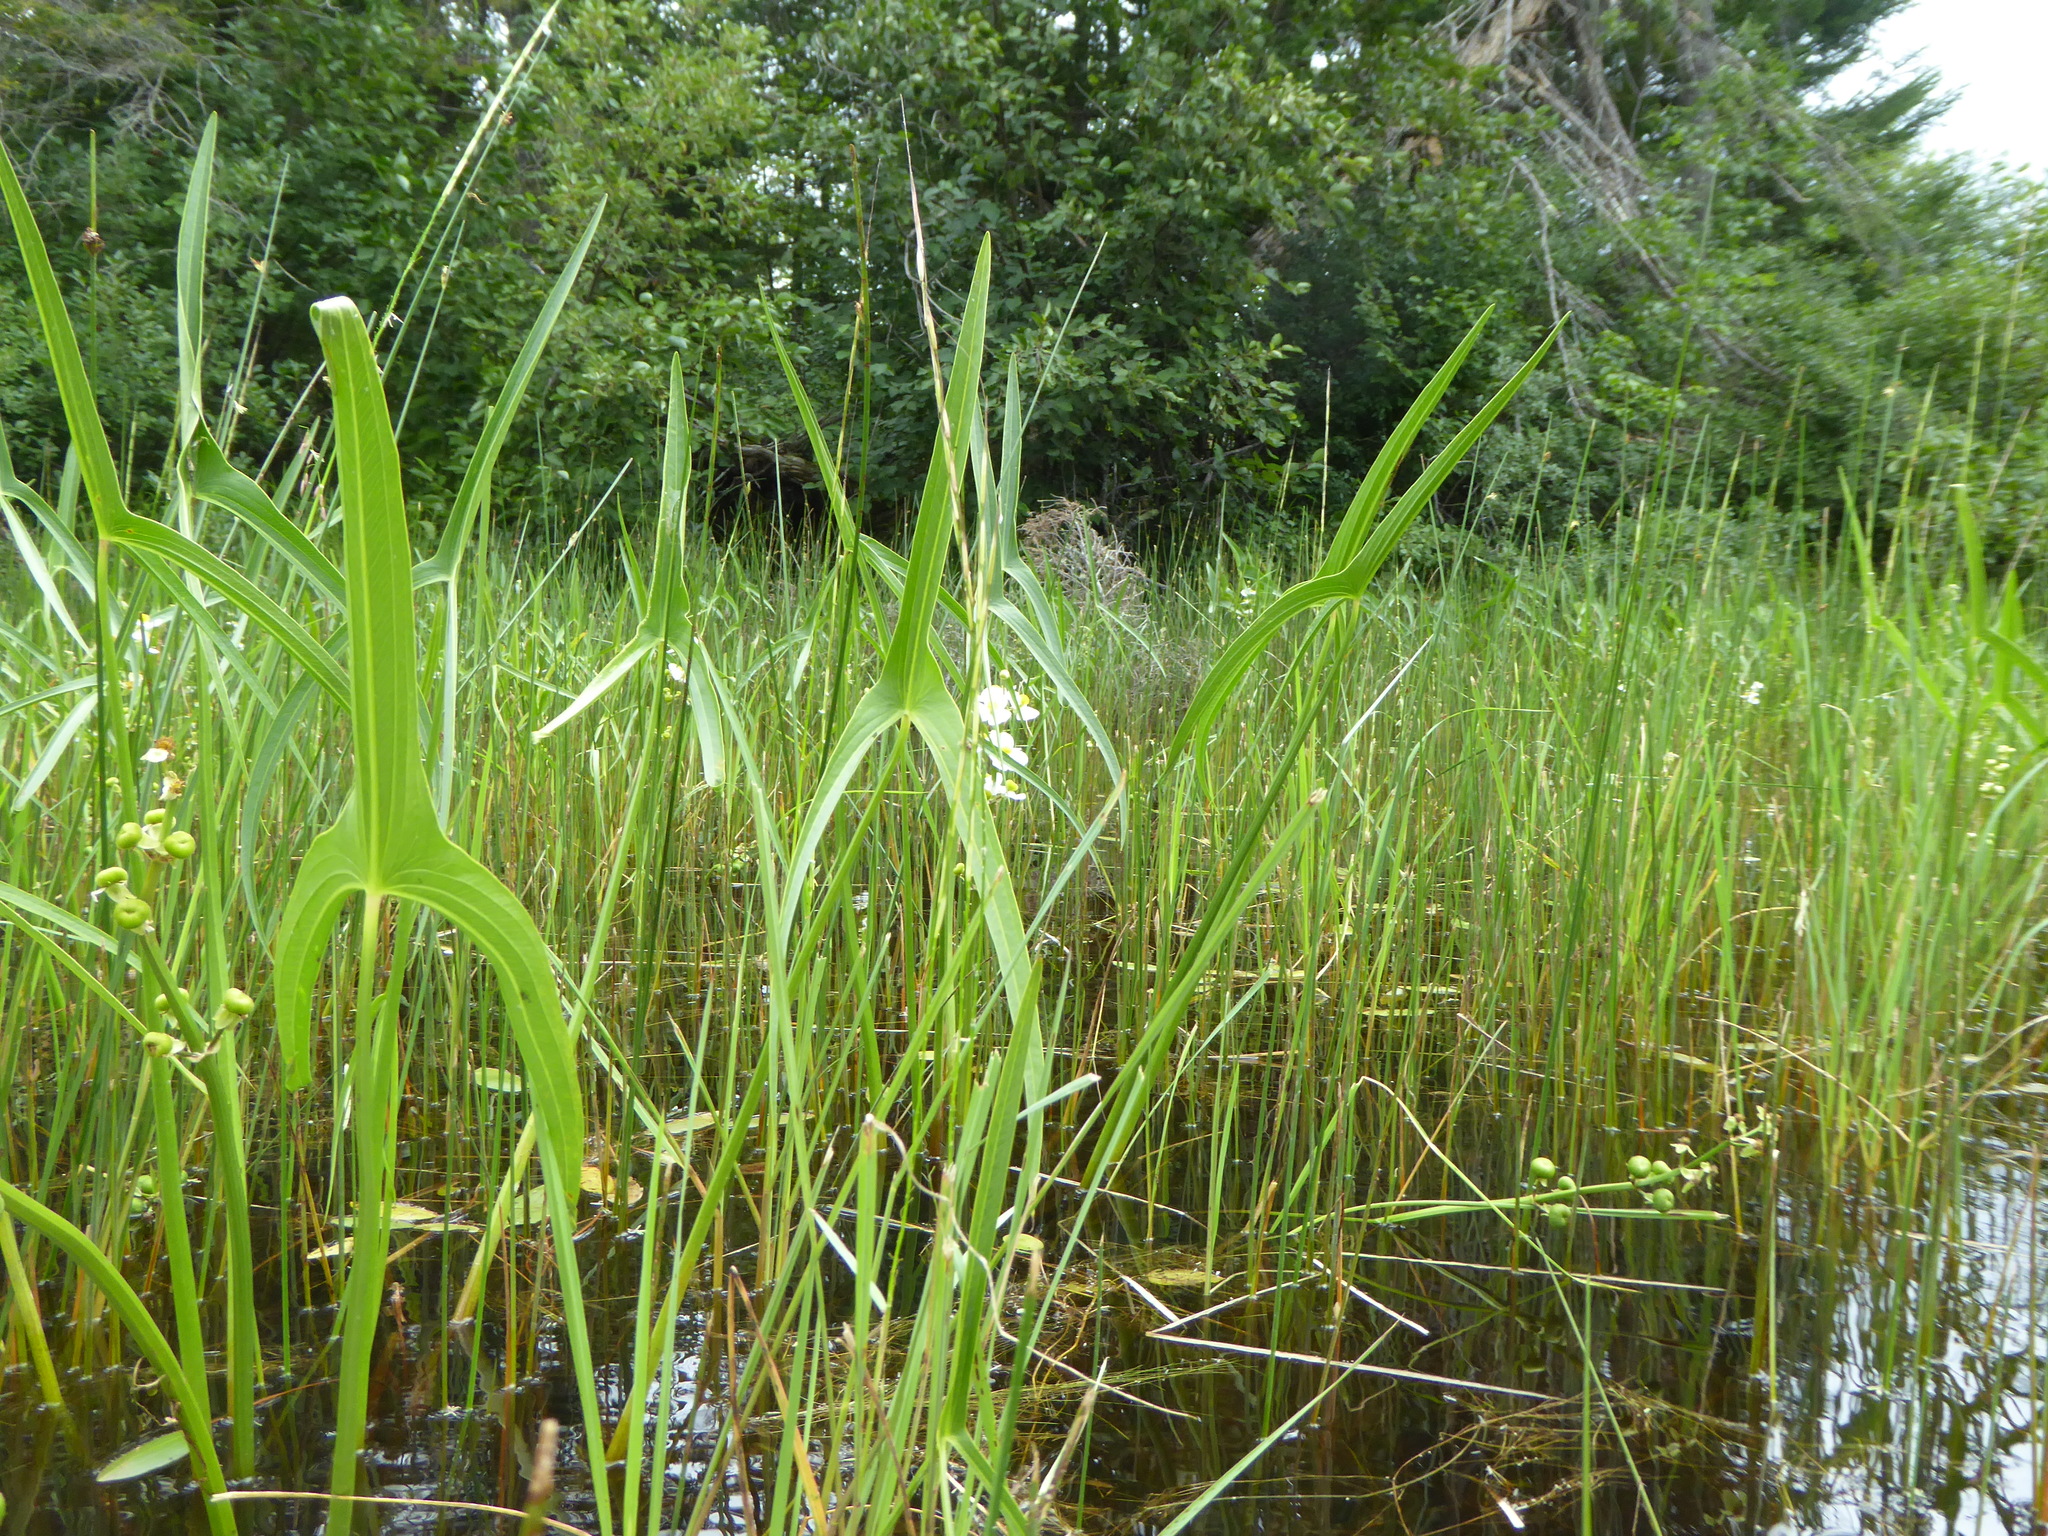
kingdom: Plantae
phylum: Tracheophyta
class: Liliopsida
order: Alismatales
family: Alismataceae
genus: Sagittaria
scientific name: Sagittaria latifolia
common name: Duck-potato
